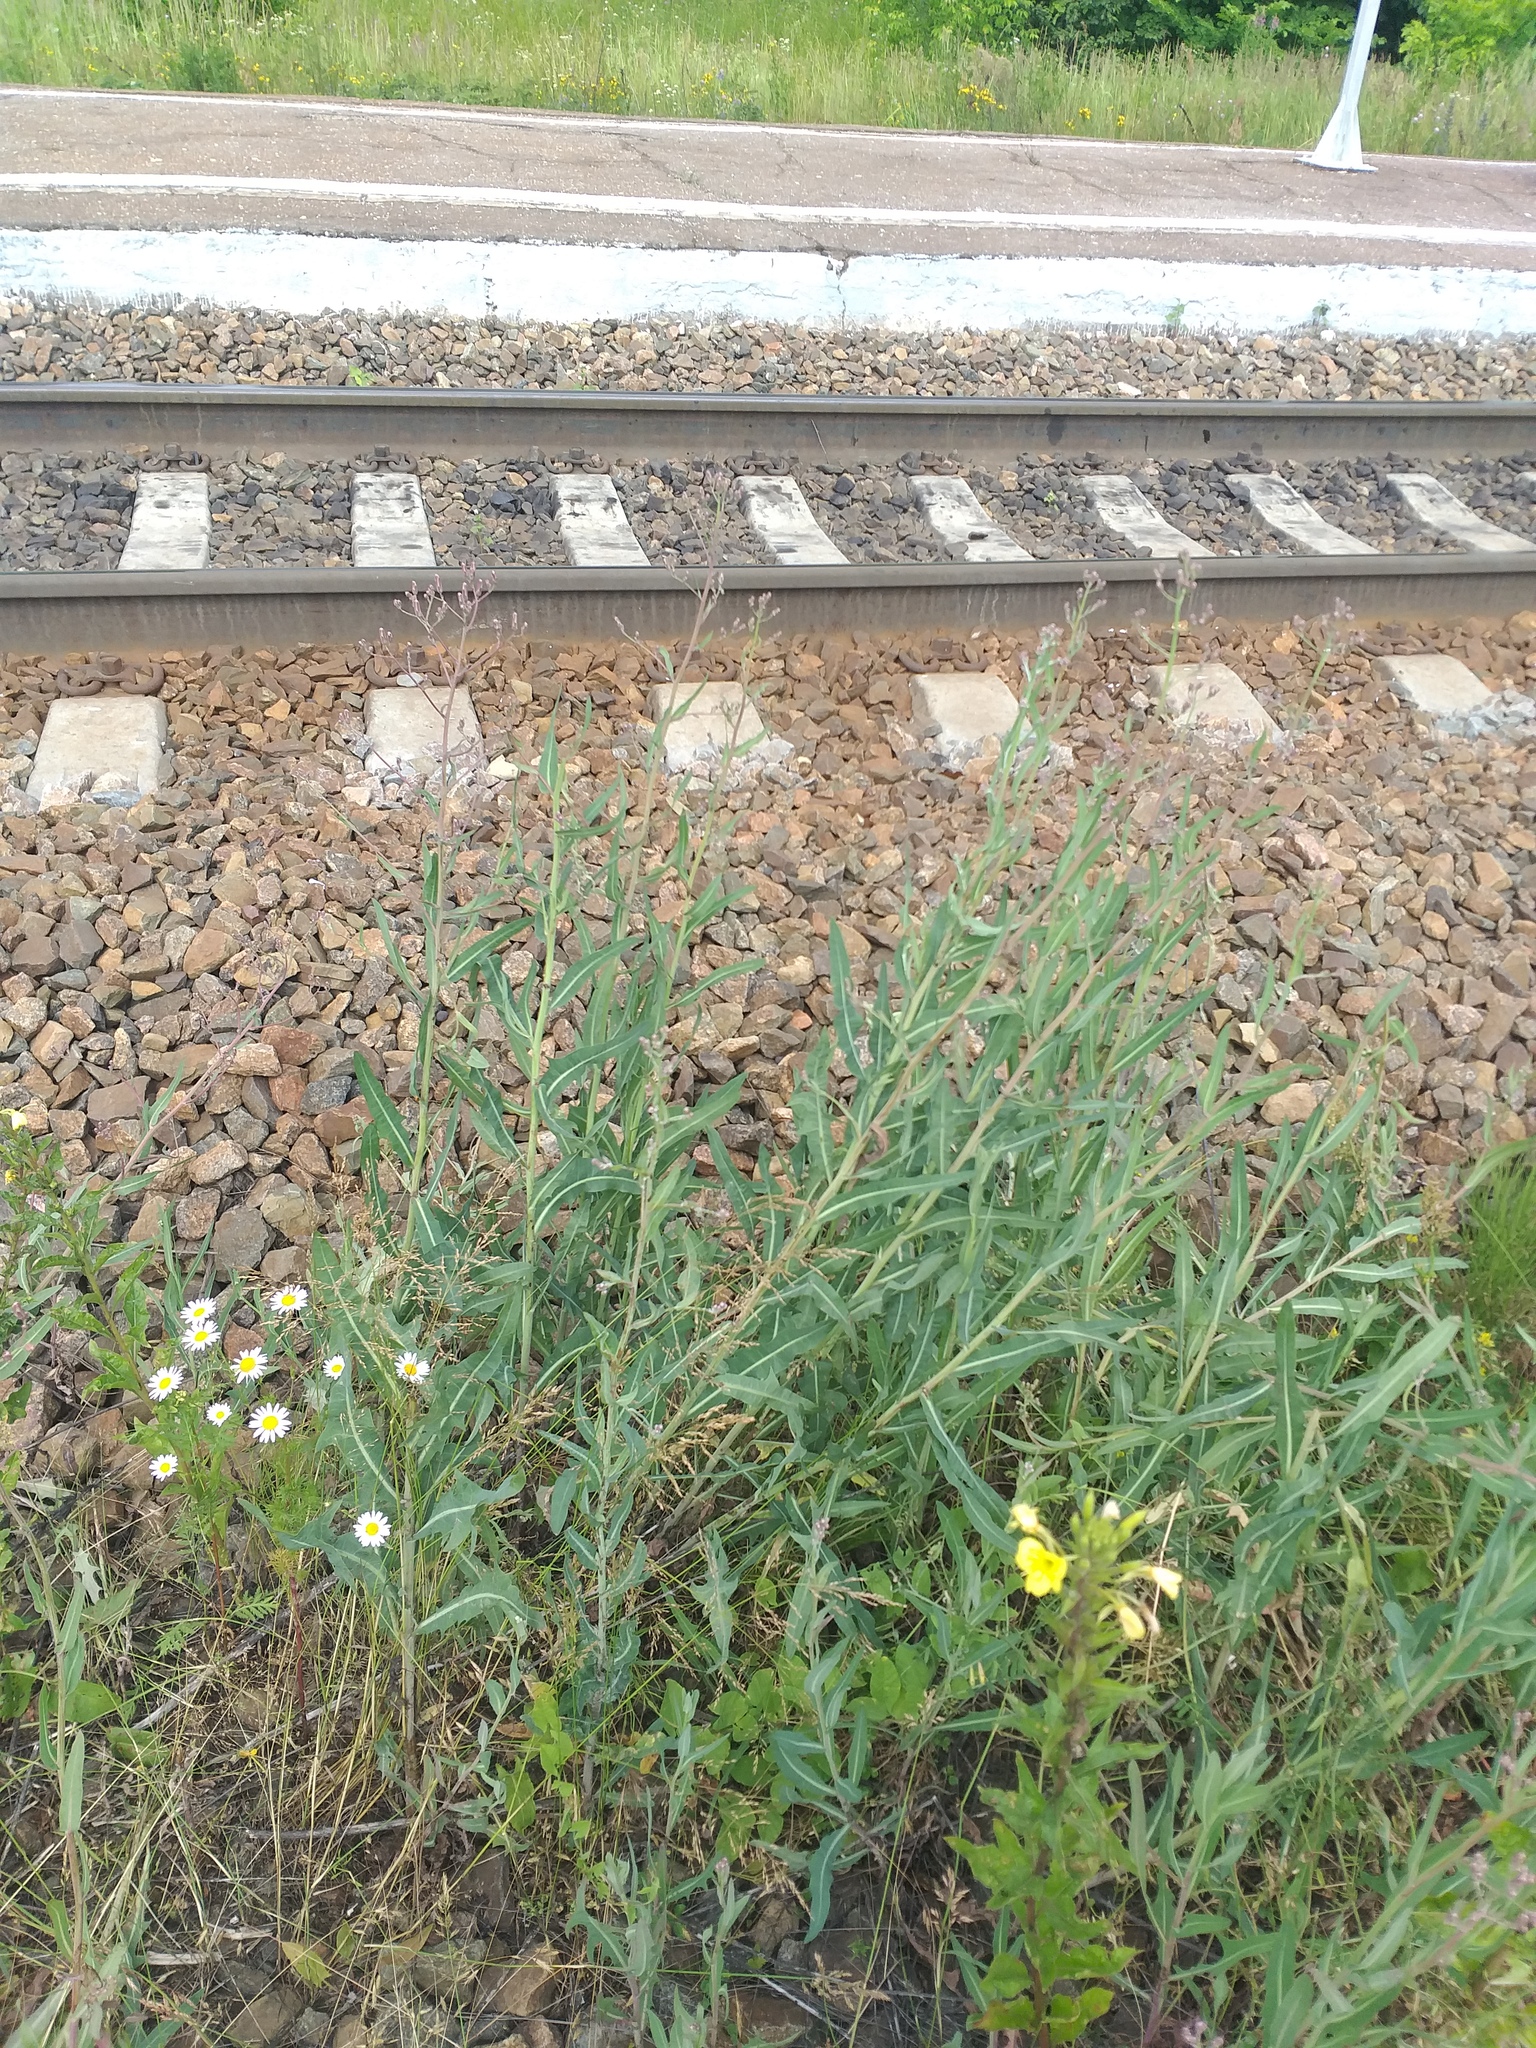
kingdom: Plantae
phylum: Tracheophyta
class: Magnoliopsida
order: Asterales
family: Asteraceae
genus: Lactuca
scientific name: Lactuca tatarica
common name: Blue lettuce
